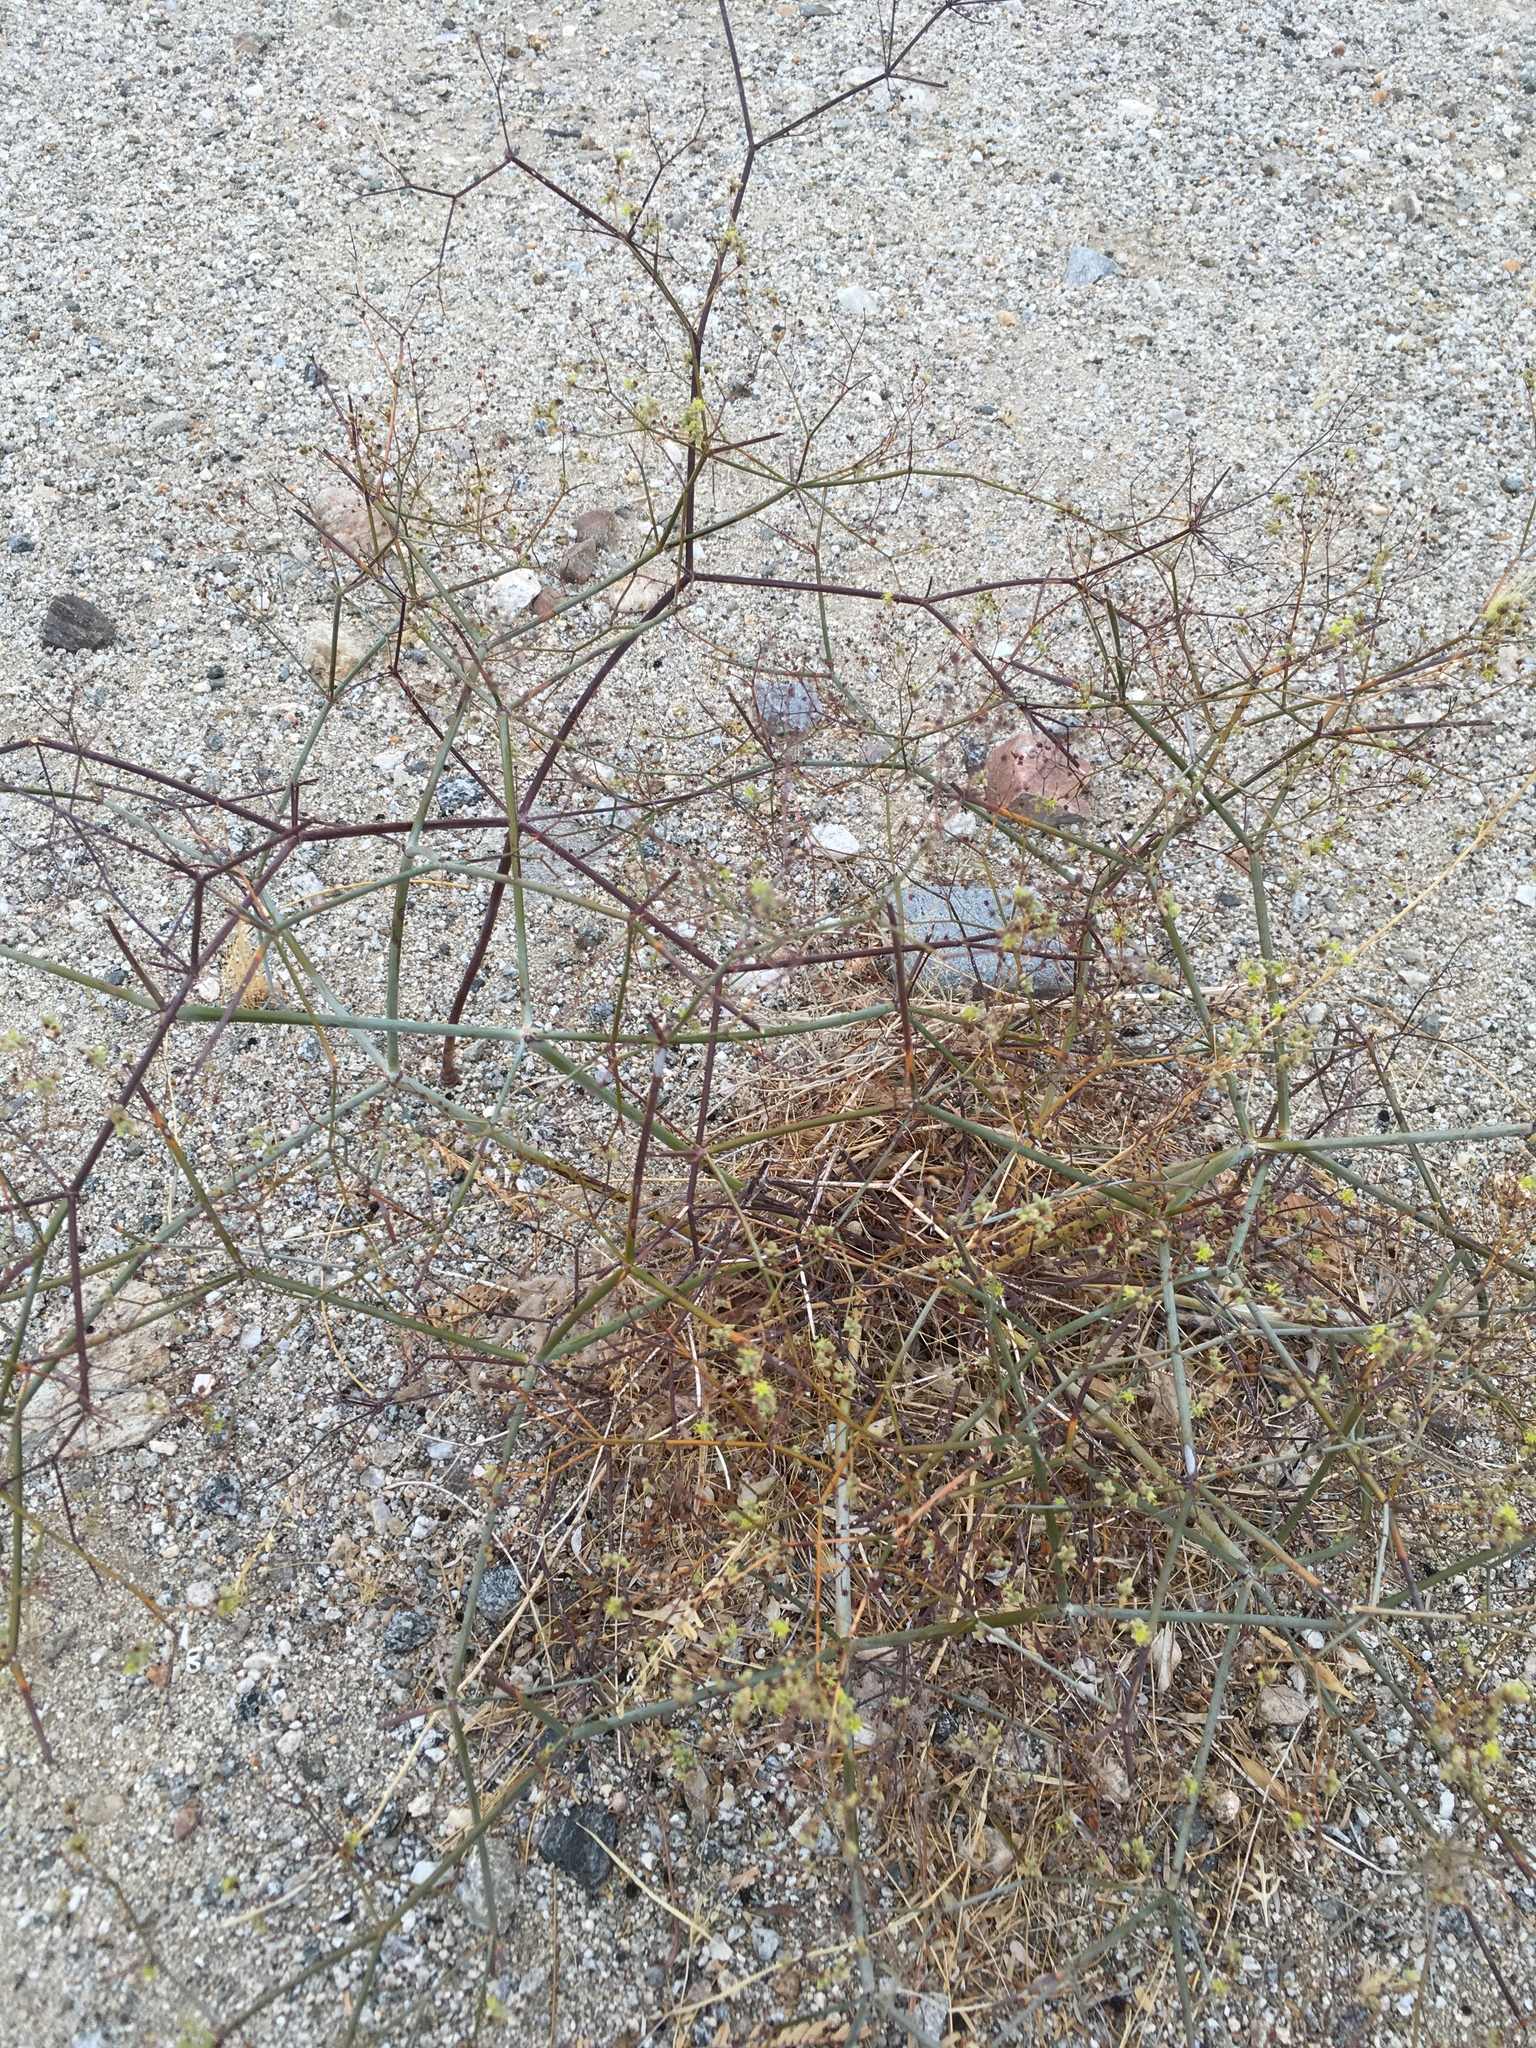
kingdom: Plantae
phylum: Tracheophyta
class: Magnoliopsida
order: Caryophyllales
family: Polygonaceae
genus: Eriogonum
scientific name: Eriogonum inflatum
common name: Desert trumpet
